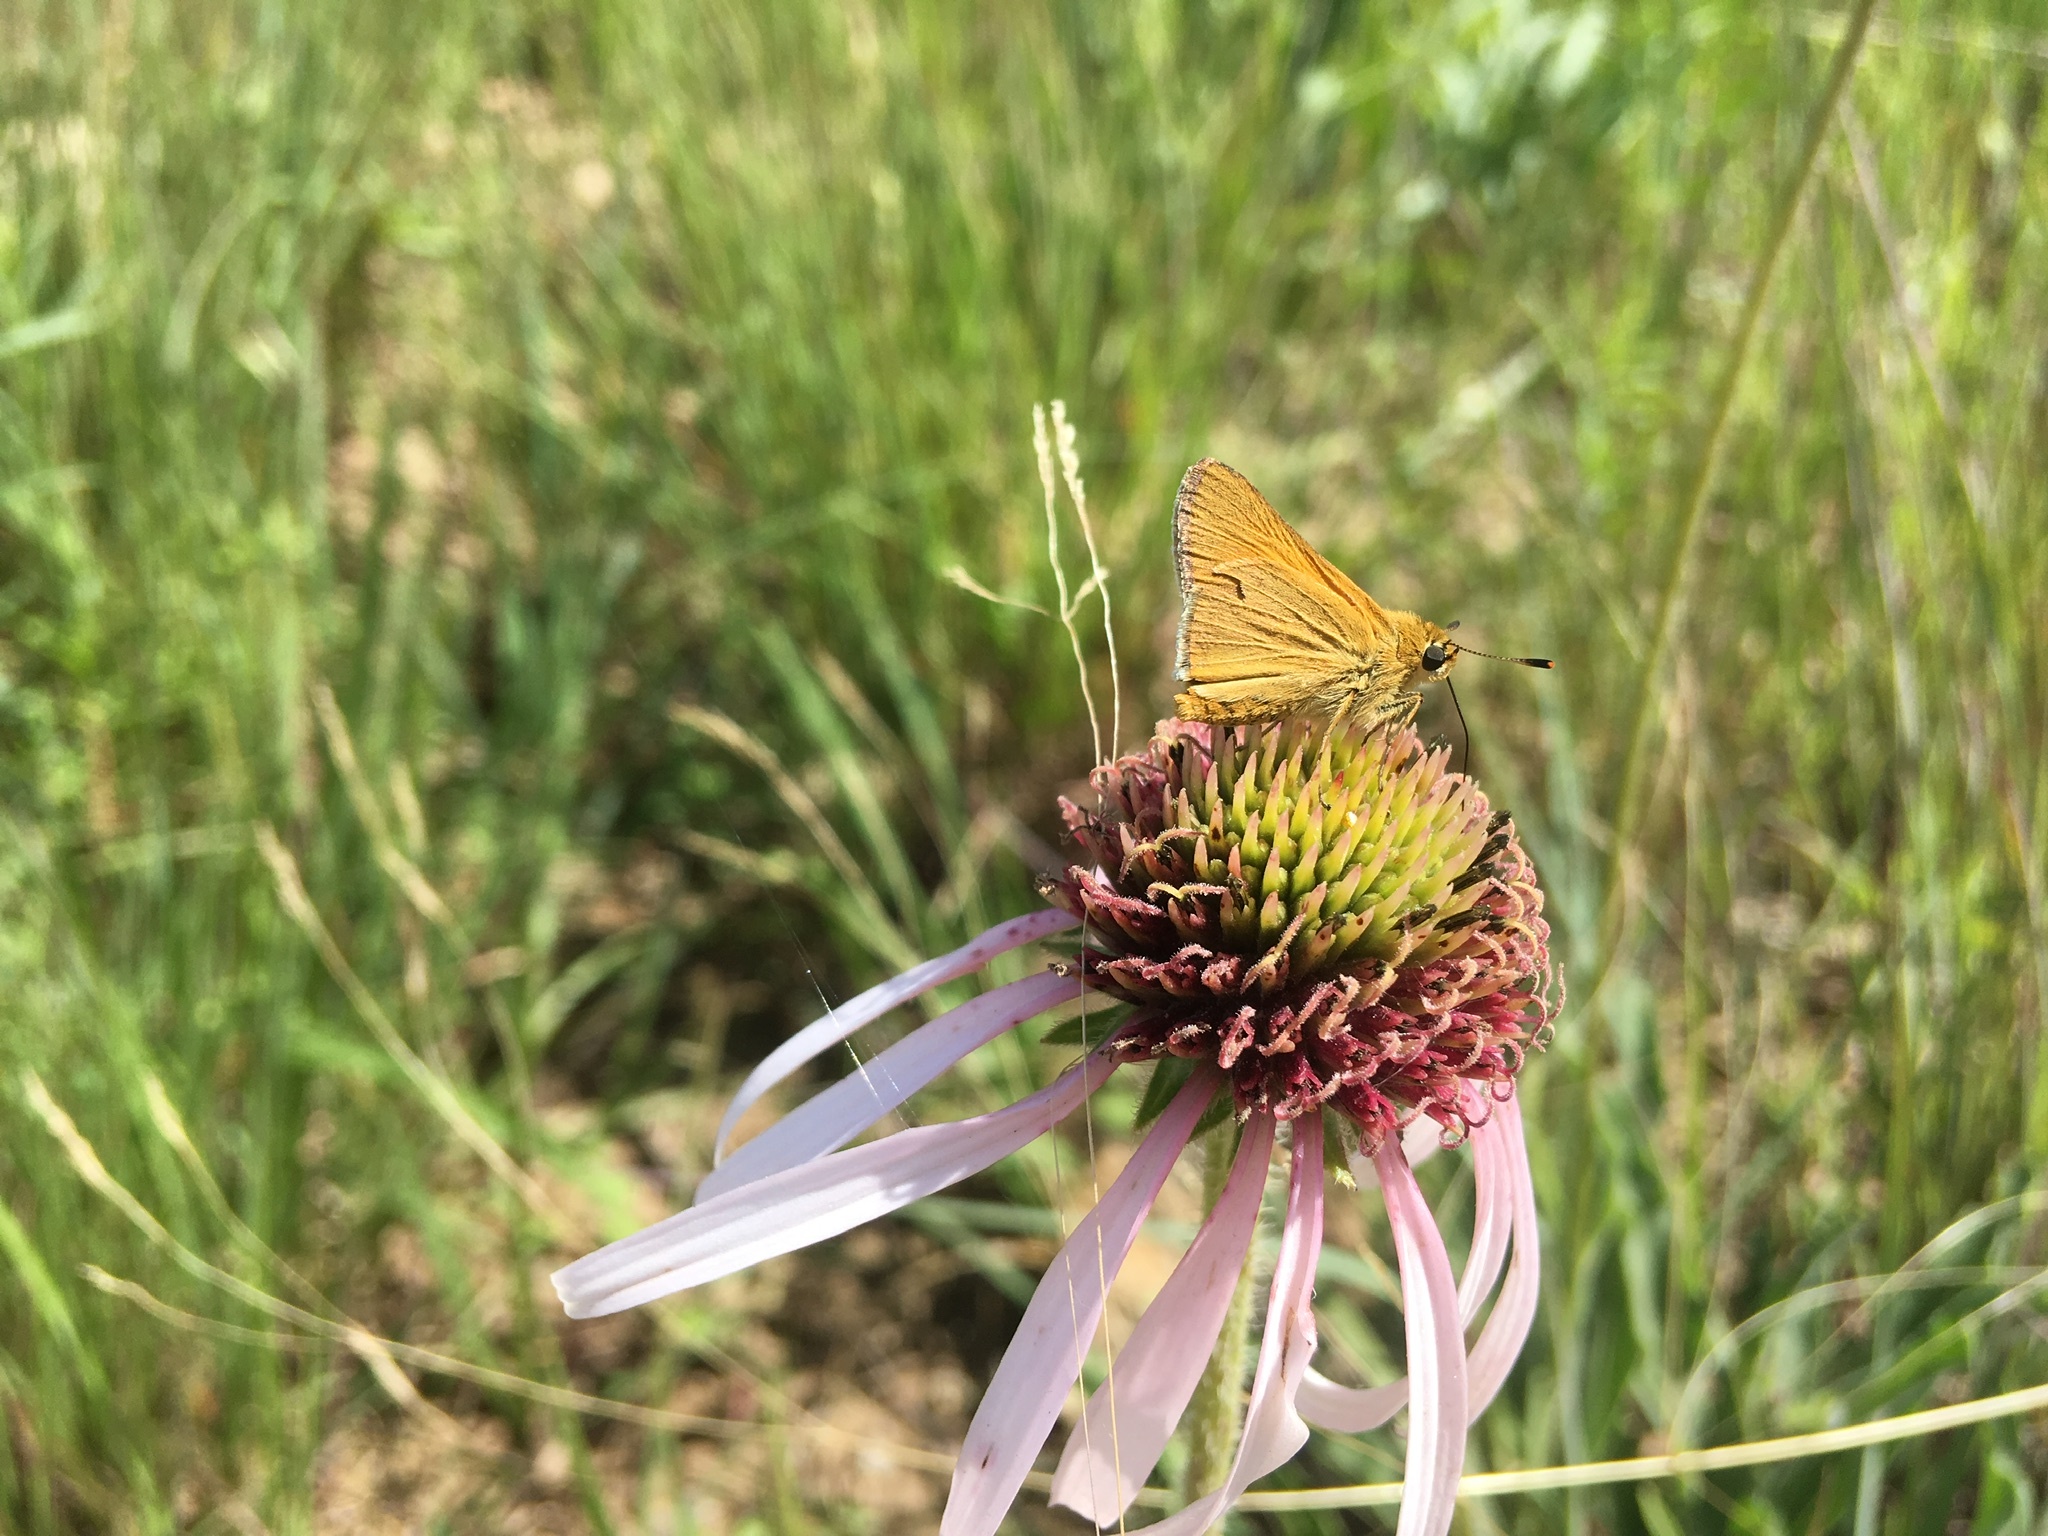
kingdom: Animalia
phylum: Arthropoda
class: Insecta
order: Lepidoptera
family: Hesperiidae
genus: Atrytone
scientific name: Atrytone arogos
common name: Arogos skipper
